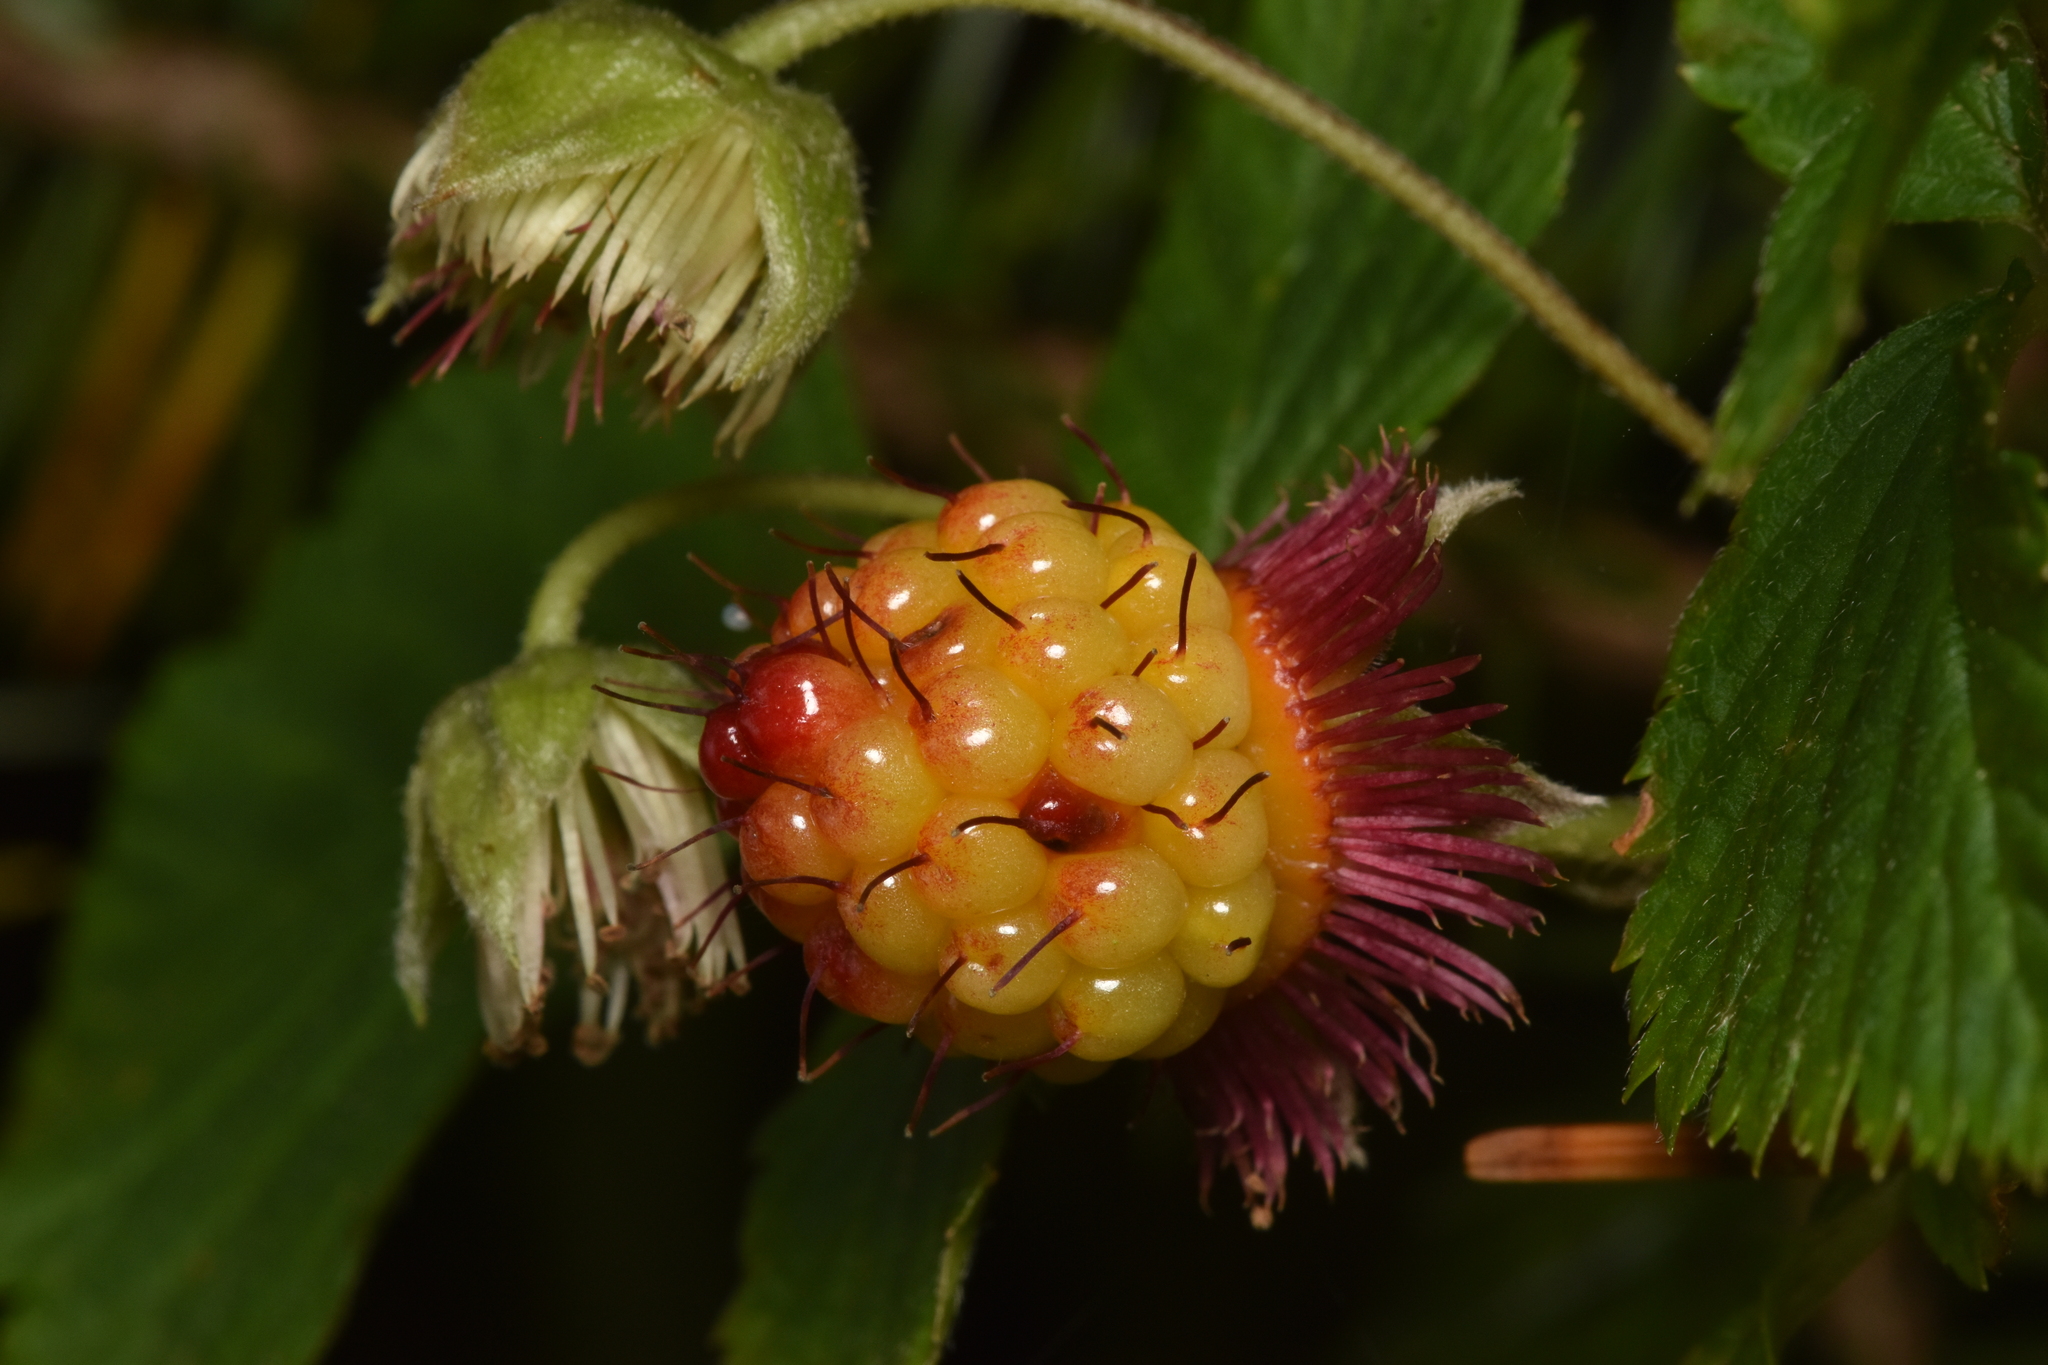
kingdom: Plantae
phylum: Tracheophyta
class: Magnoliopsida
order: Rosales
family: Rosaceae
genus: Rubus
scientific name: Rubus spectabilis
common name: Salmonberry
